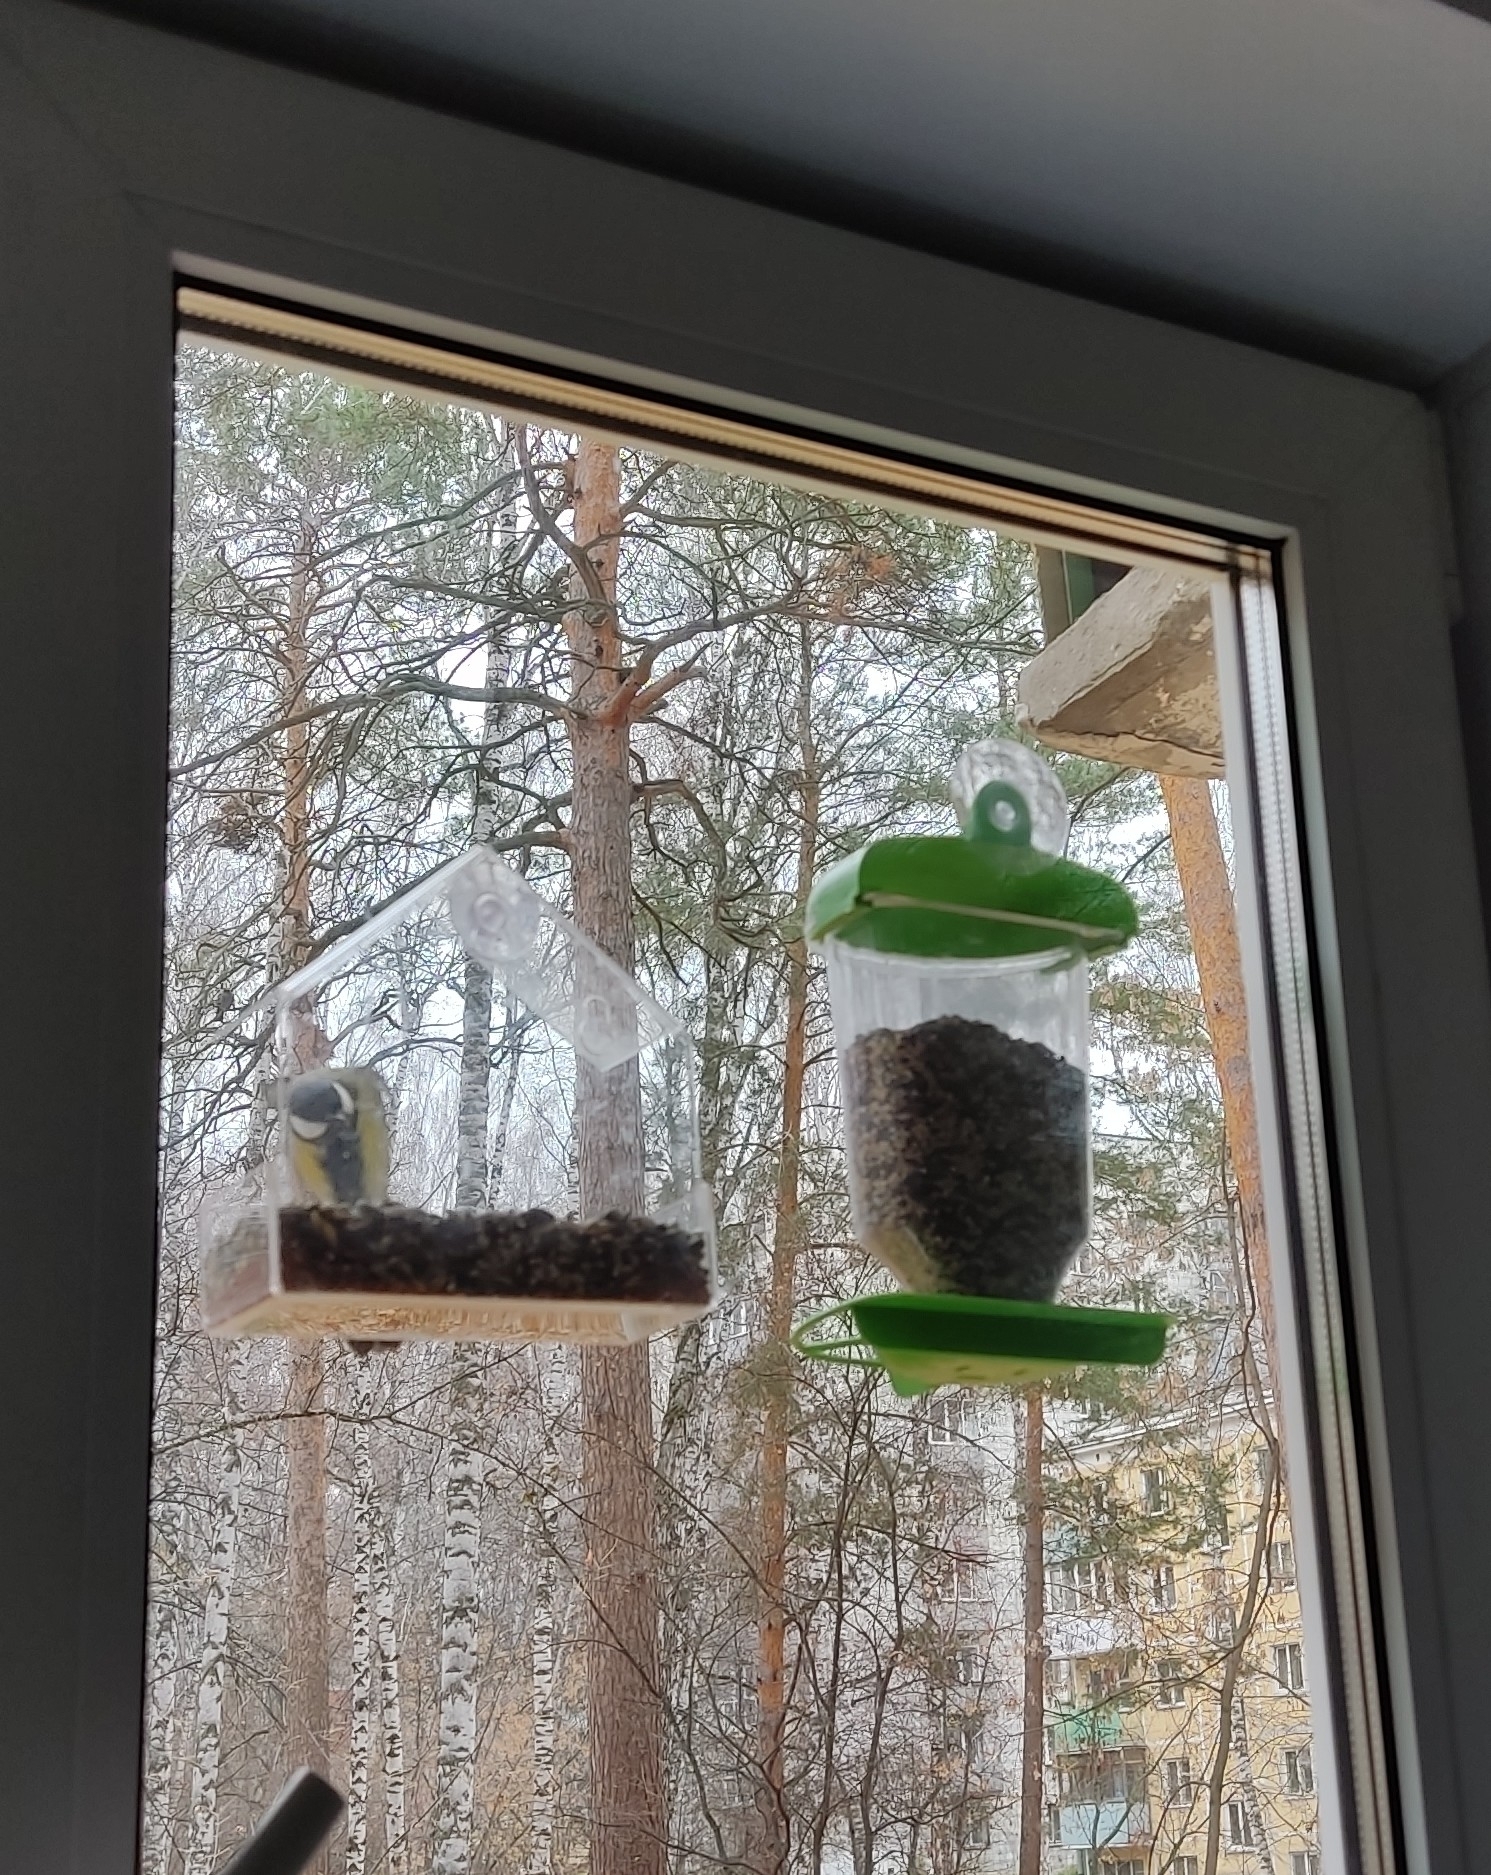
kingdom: Animalia
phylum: Chordata
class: Aves
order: Passeriformes
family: Paridae
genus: Parus
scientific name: Parus major
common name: Great tit
